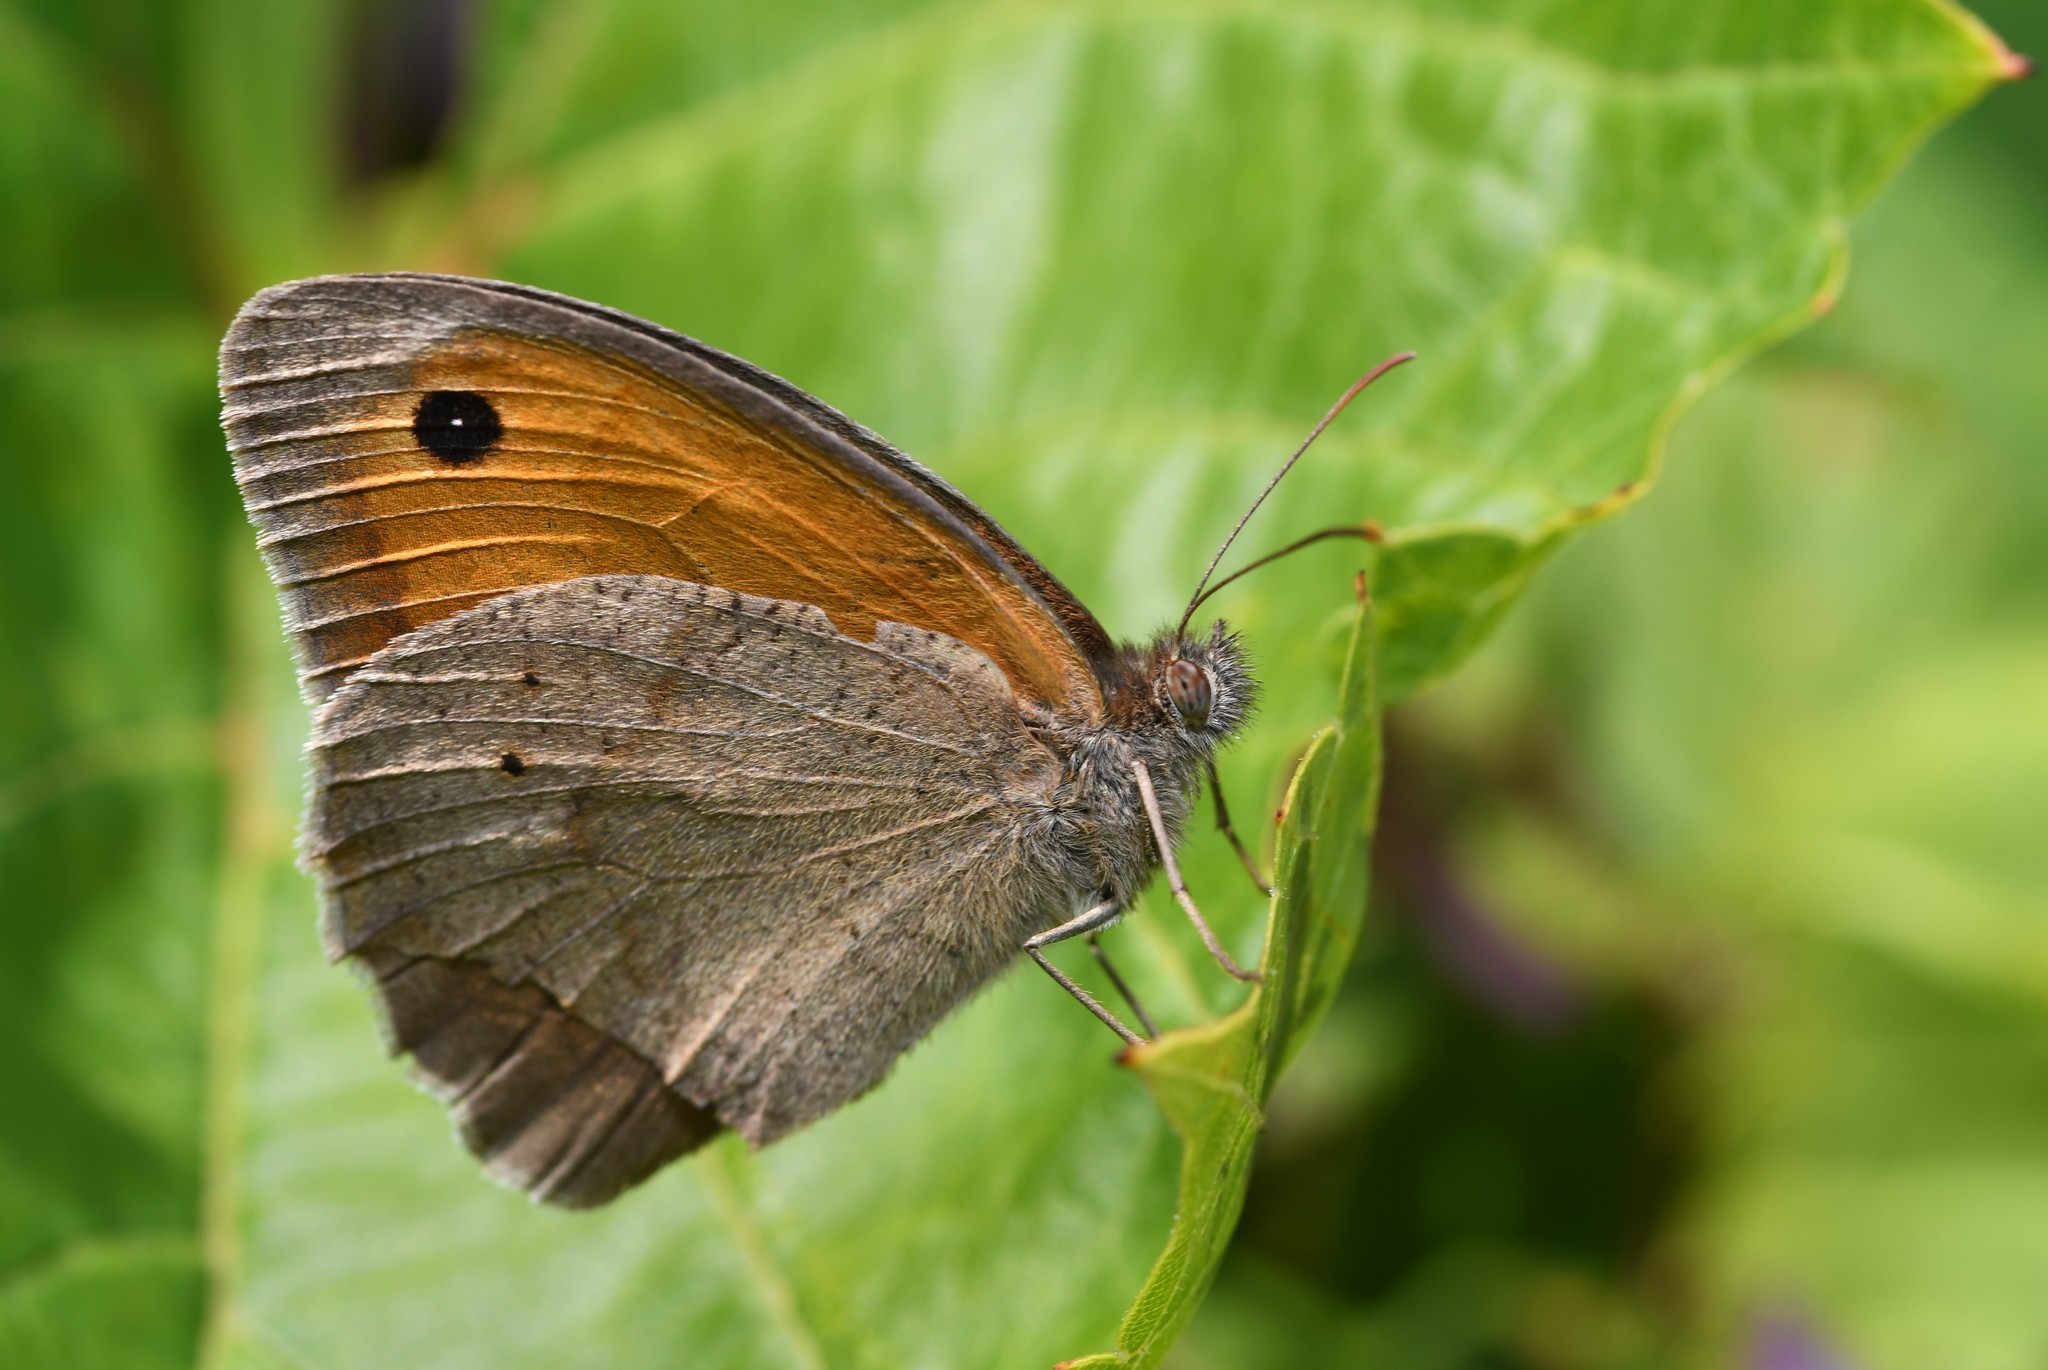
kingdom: Animalia
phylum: Arthropoda
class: Insecta
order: Lepidoptera
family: Nymphalidae
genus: Maniola
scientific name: Maniola jurtina
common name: Meadow brown
